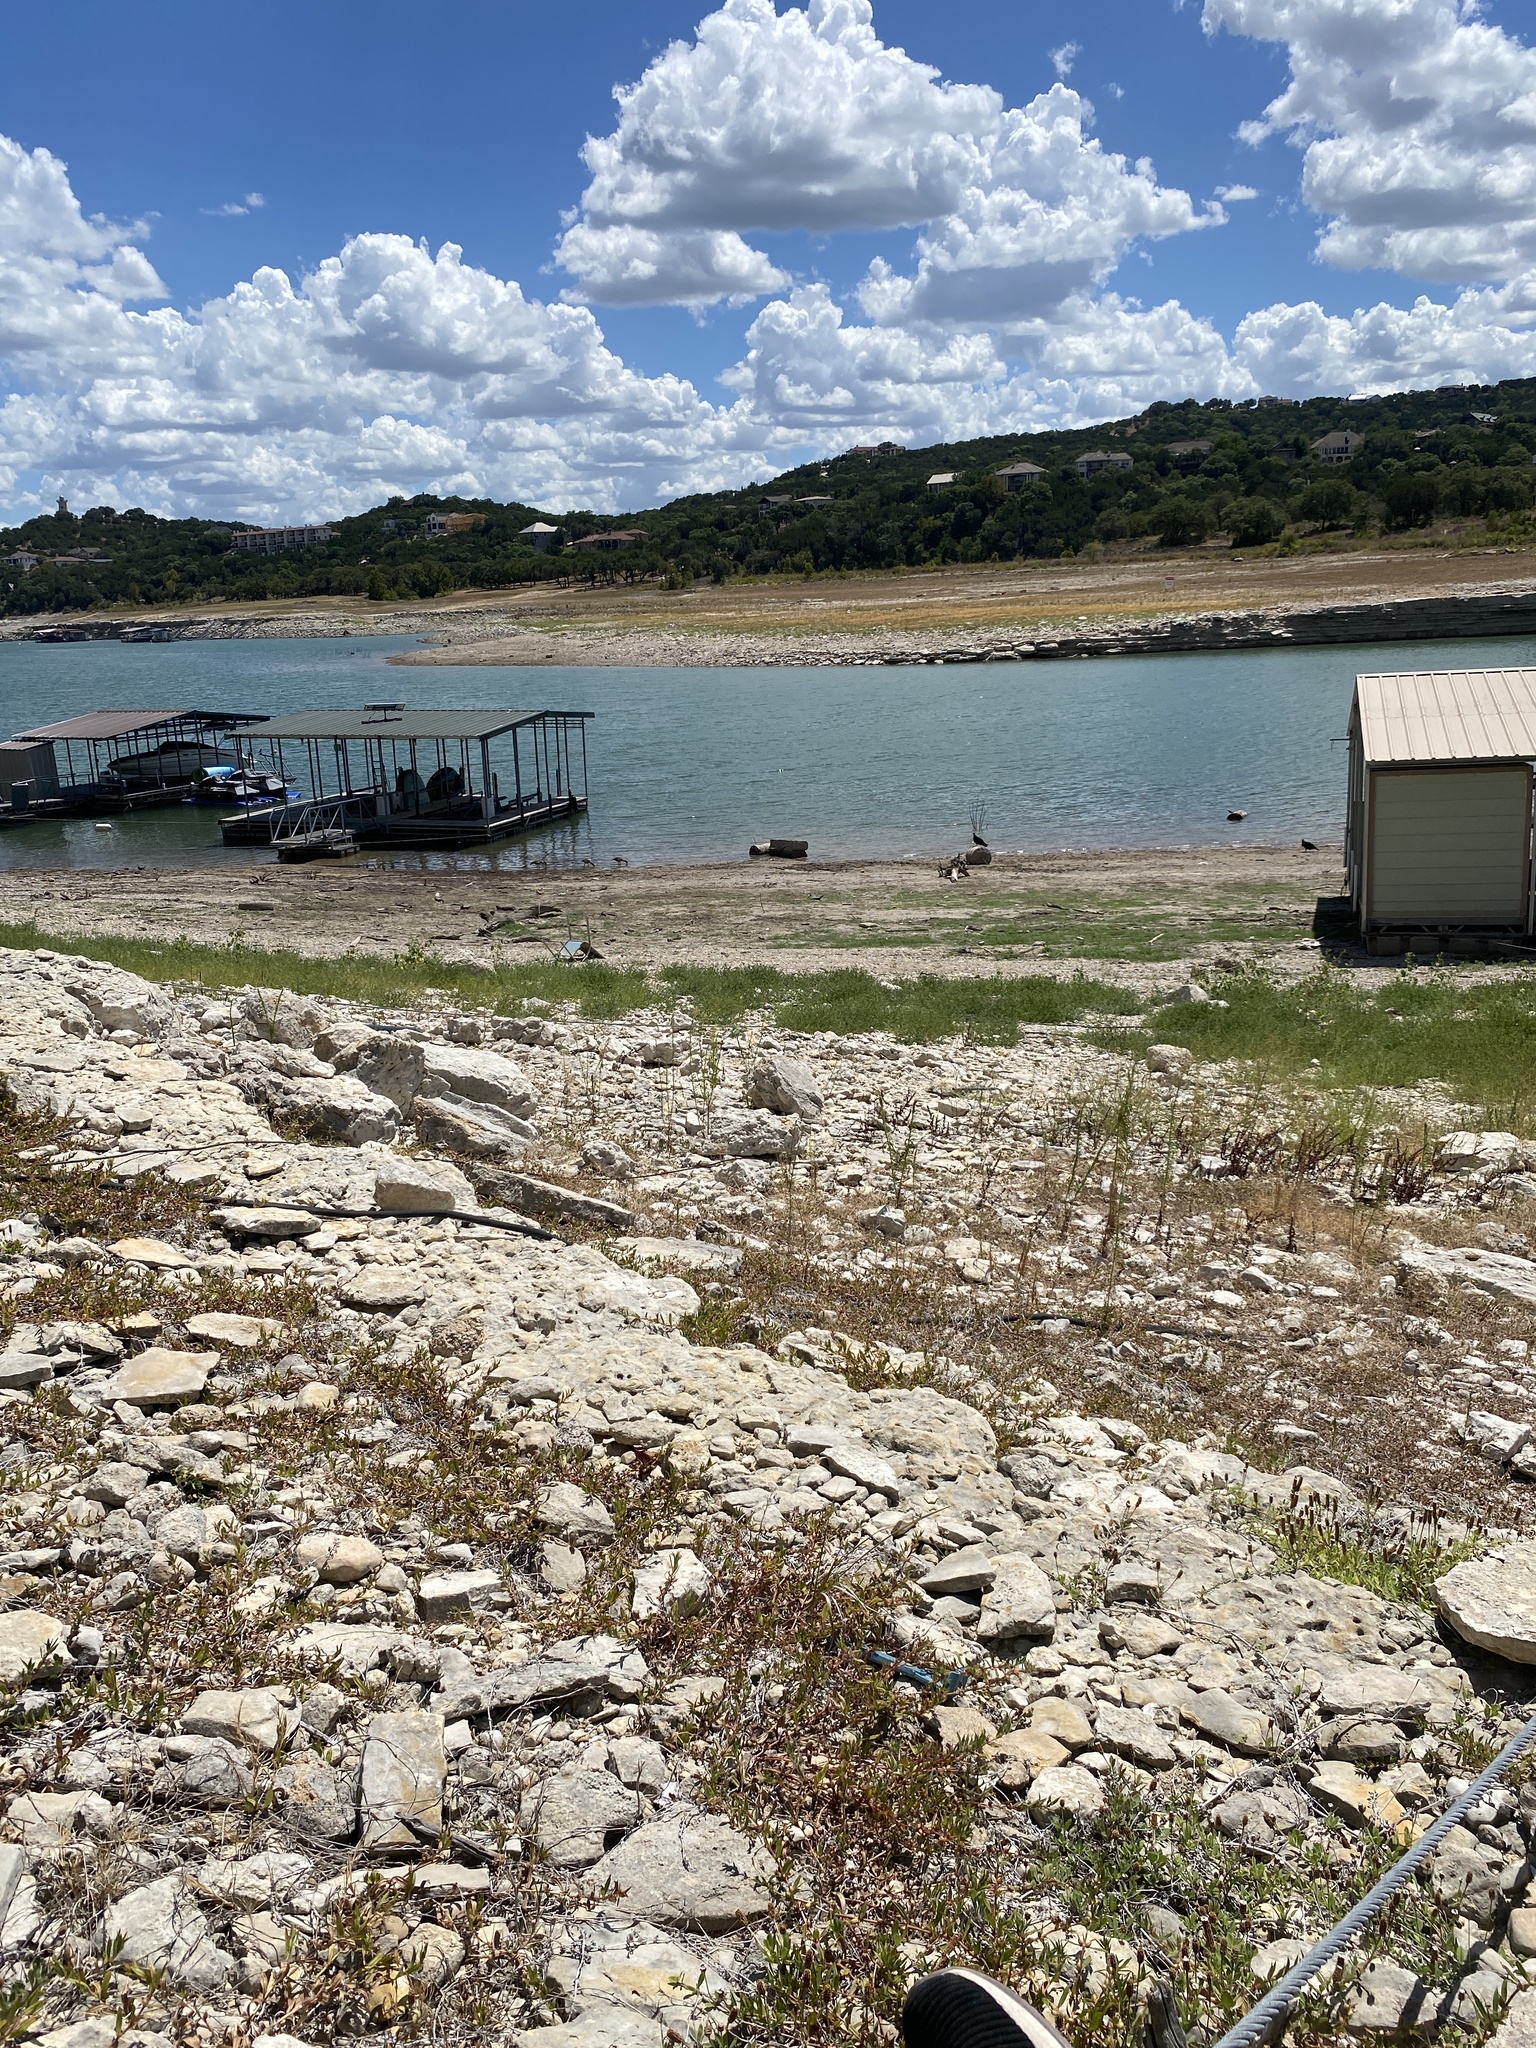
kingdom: Animalia
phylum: Chordata
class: Aves
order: Anseriformes
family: Anatidae
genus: Alopochen
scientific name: Alopochen aegyptiaca
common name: Egyptian goose
